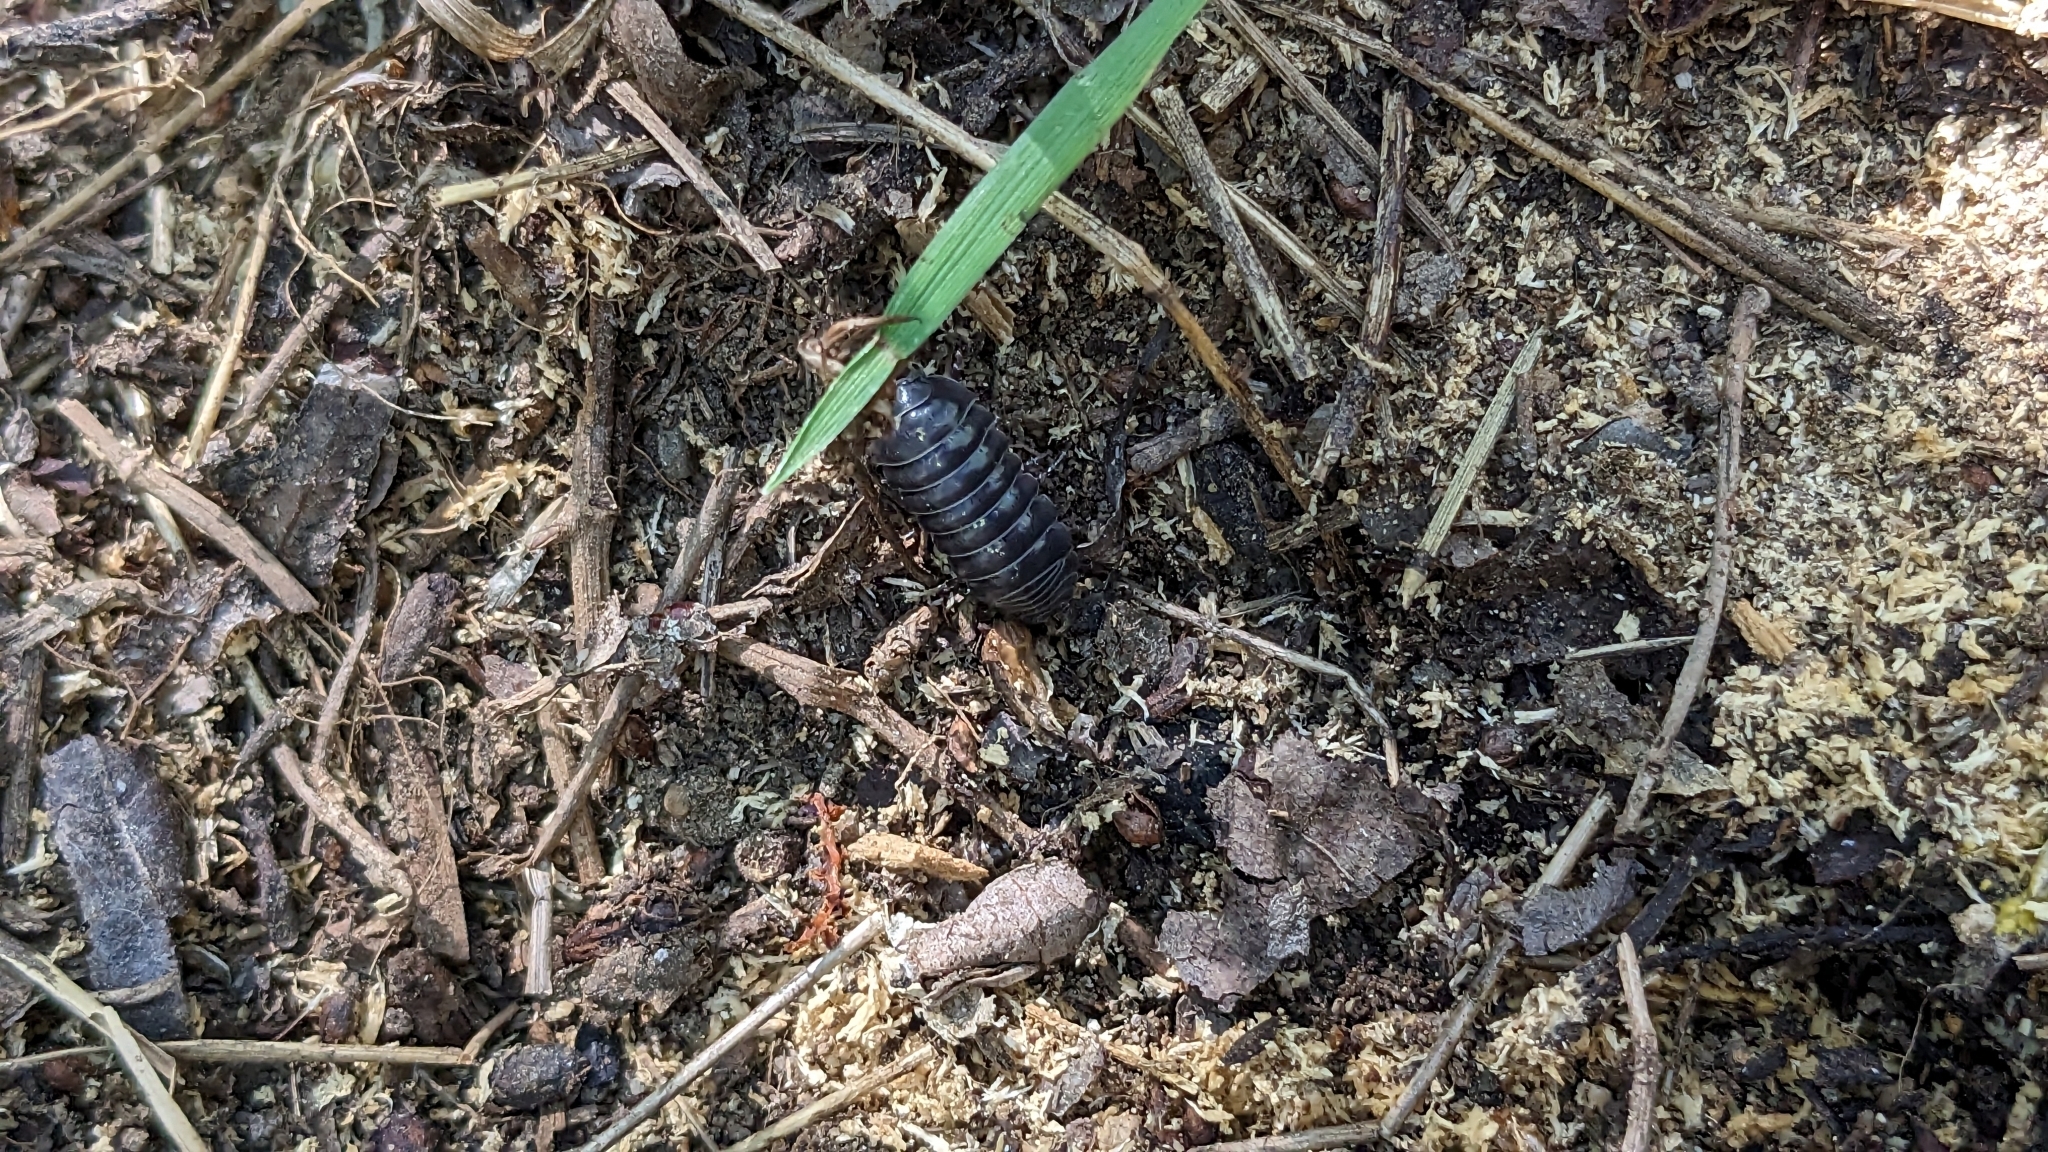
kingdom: Animalia
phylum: Arthropoda
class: Malacostraca
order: Isopoda
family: Armadillidiidae
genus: Armadillidium
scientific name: Armadillidium vulgare
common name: Common pill woodlouse
